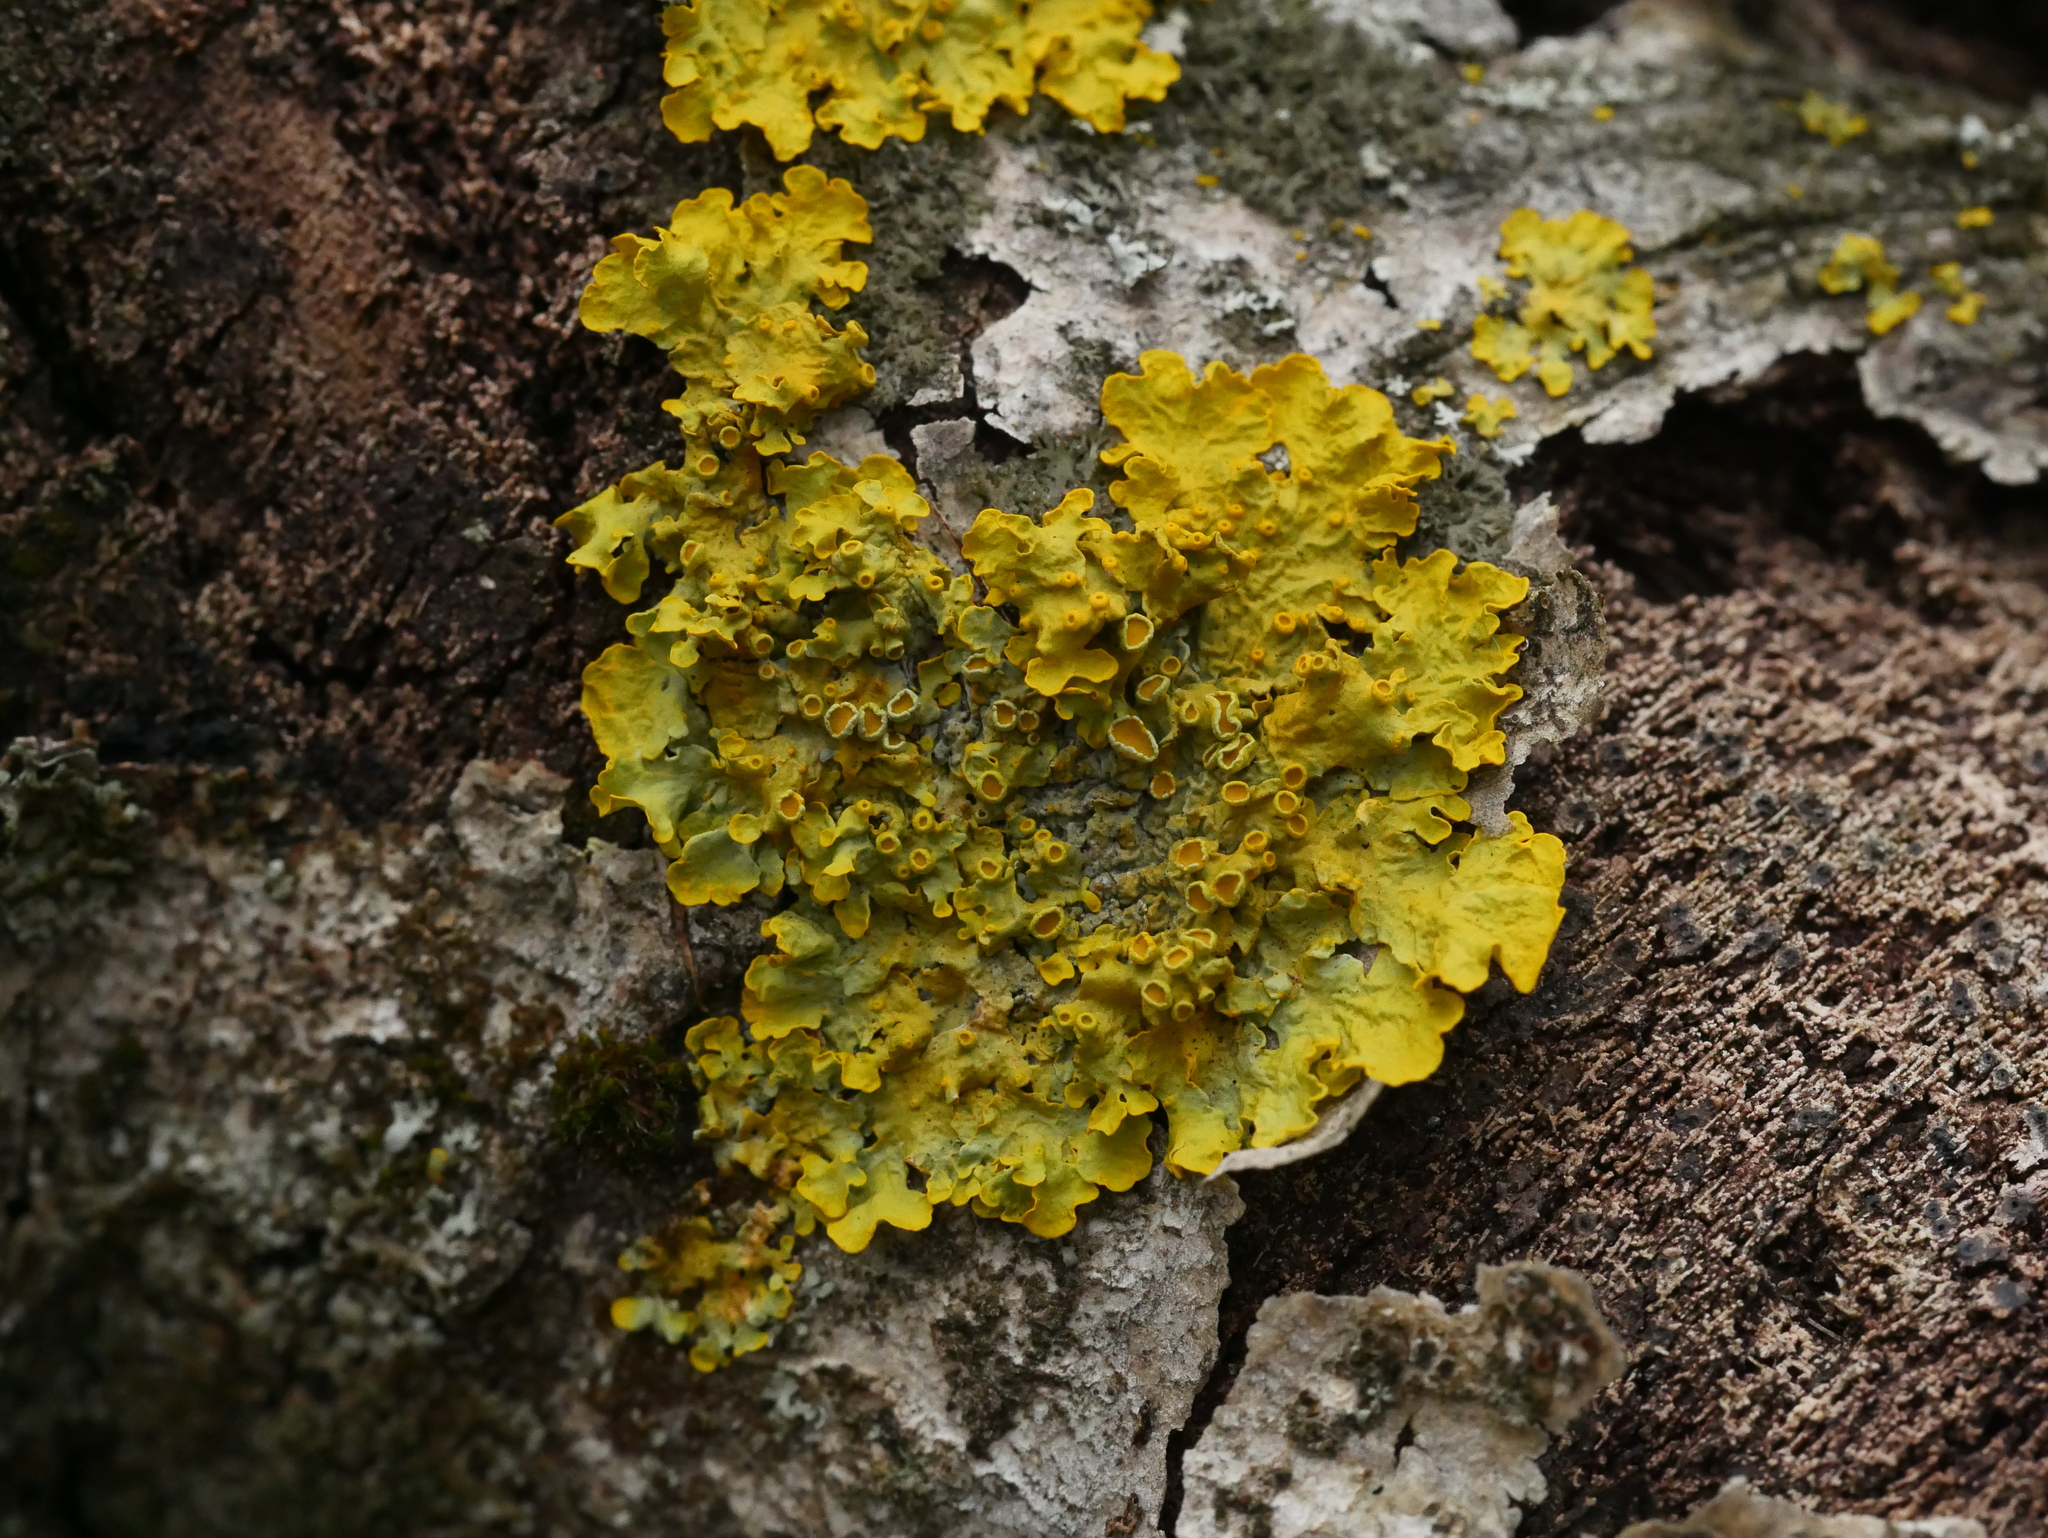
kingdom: Fungi
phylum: Ascomycota
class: Lecanoromycetes
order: Teloschistales
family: Teloschistaceae
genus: Xanthoria
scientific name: Xanthoria parietina
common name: Common orange lichen
